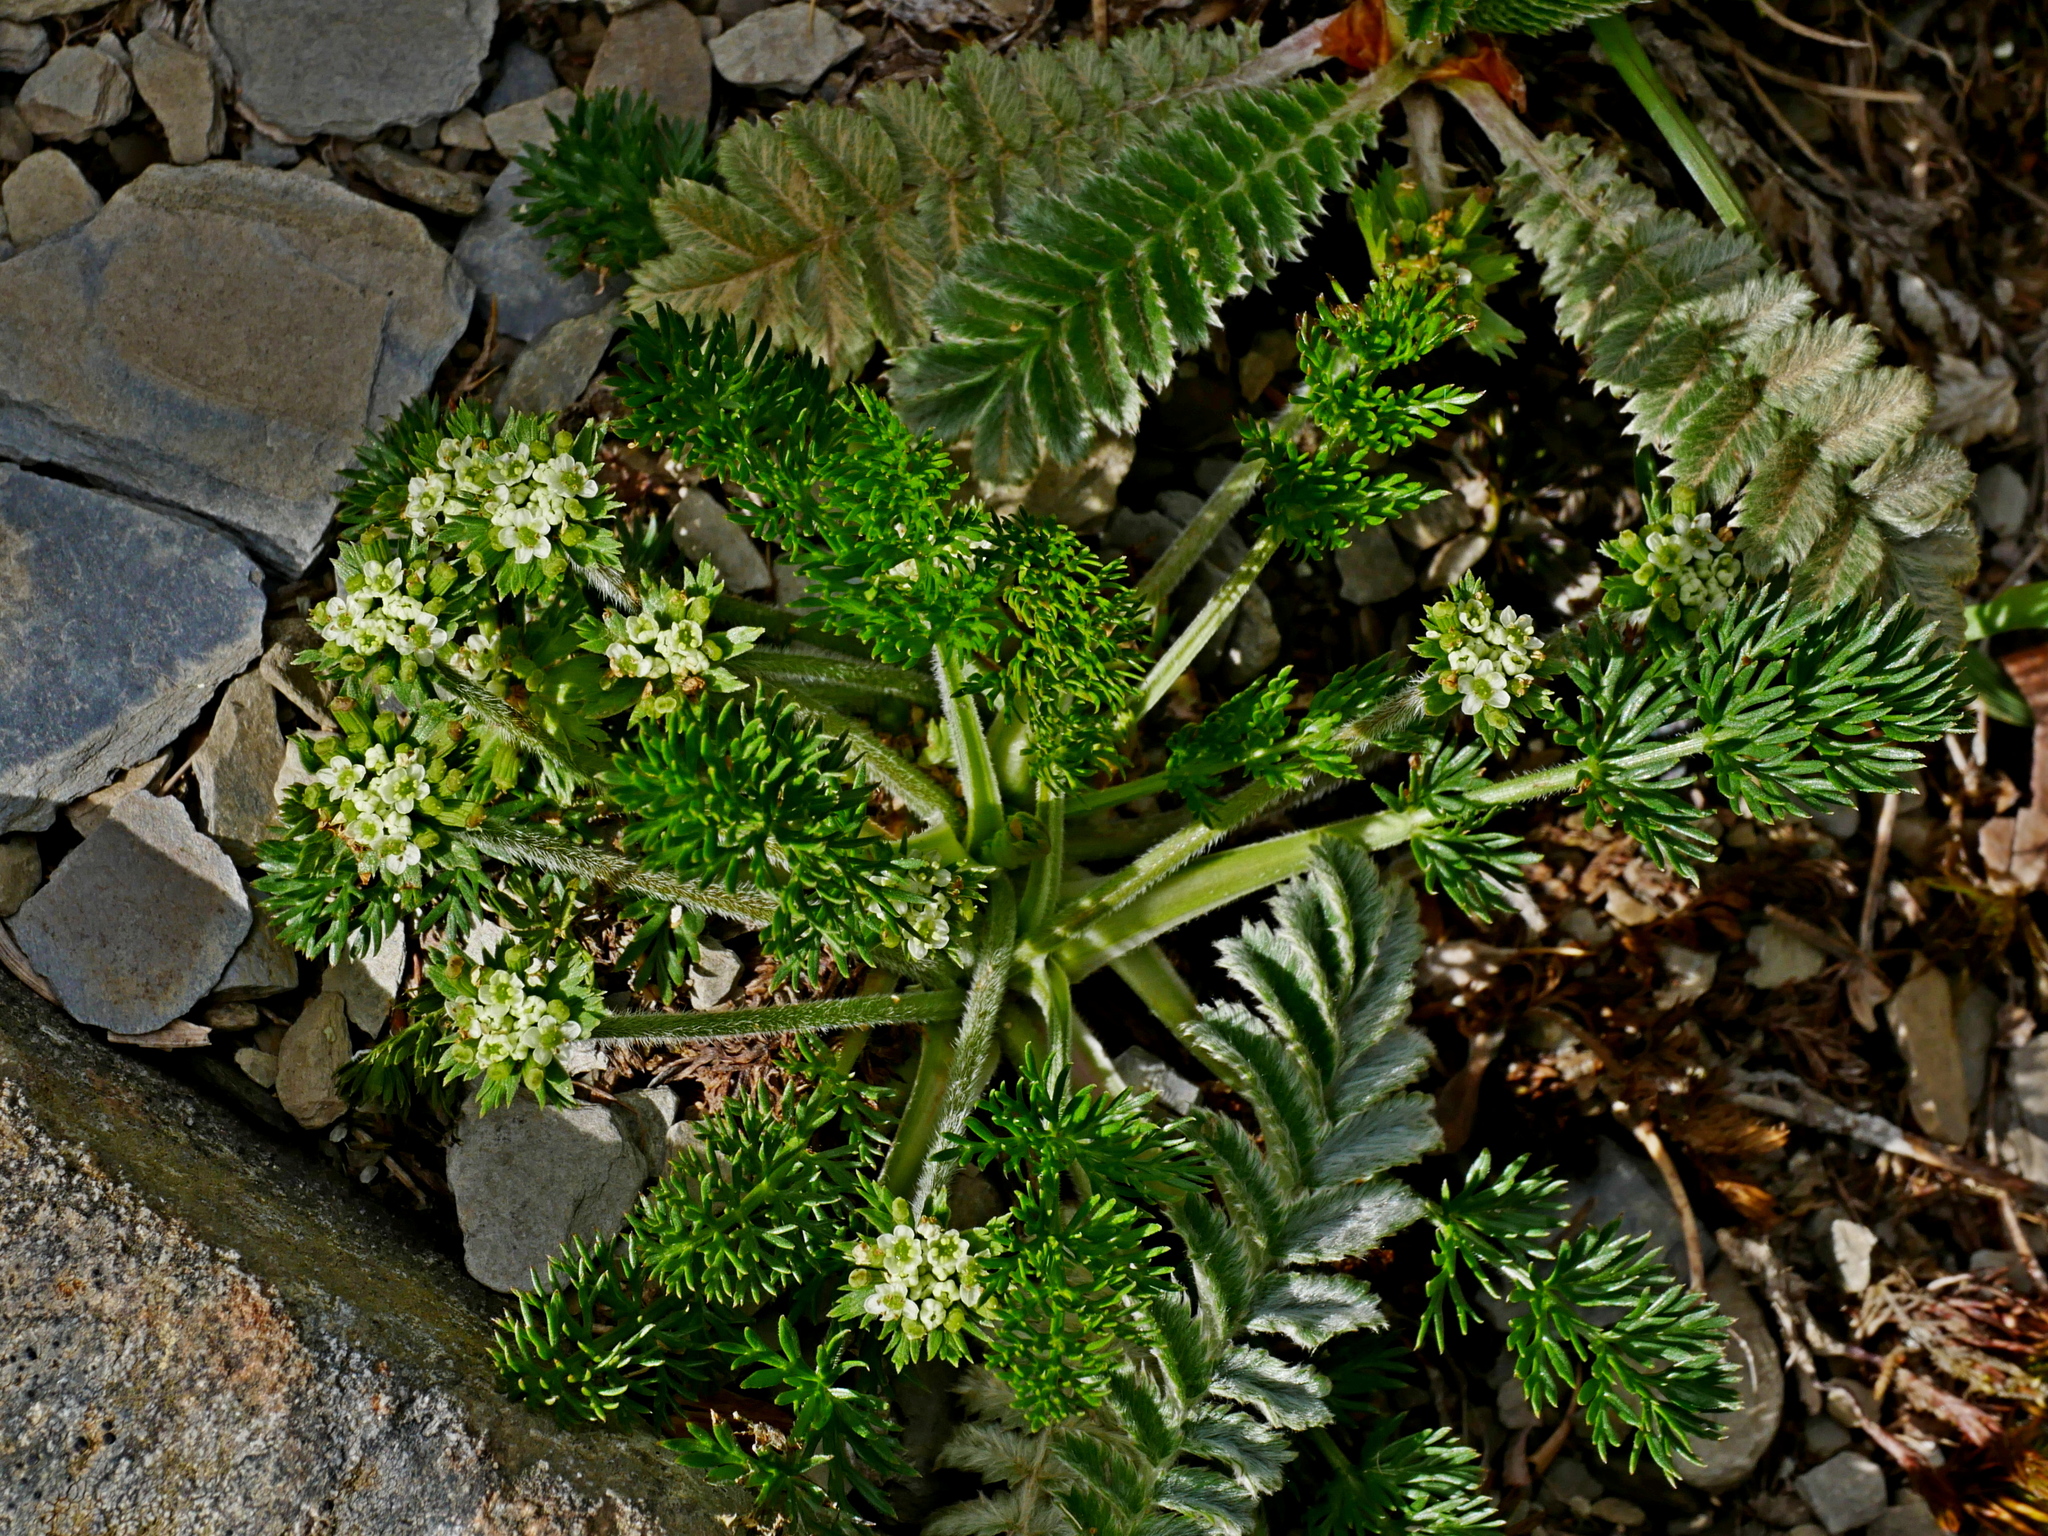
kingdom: Plantae
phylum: Tracheophyta
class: Magnoliopsida
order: Apiales
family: Apiaceae
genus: Chaerophyllum
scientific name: Chaerophyllum nanhuense
